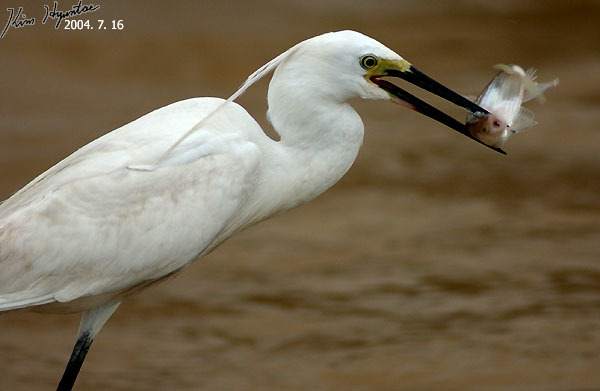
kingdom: Animalia
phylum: Chordata
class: Aves
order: Pelecaniformes
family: Ardeidae
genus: Egretta
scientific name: Egretta garzetta
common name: Little egret
